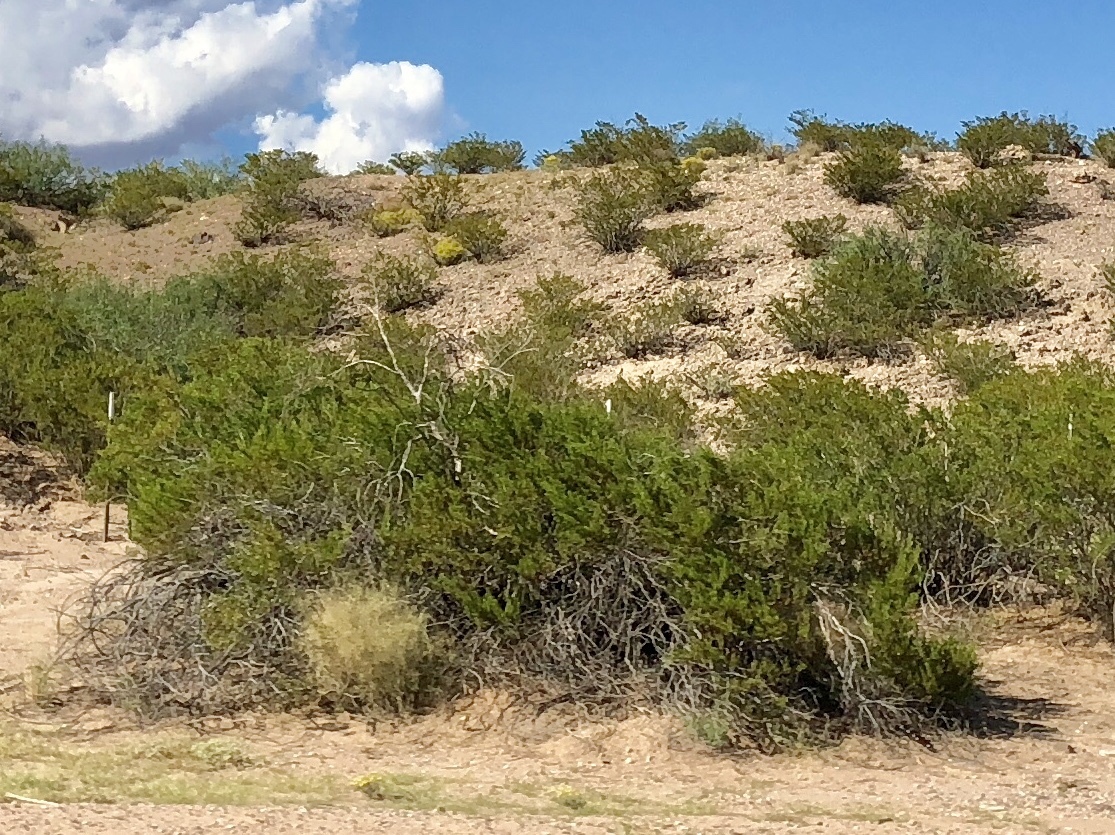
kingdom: Plantae
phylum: Tracheophyta
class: Magnoliopsida
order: Zygophyllales
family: Zygophyllaceae
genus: Larrea
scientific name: Larrea tridentata
